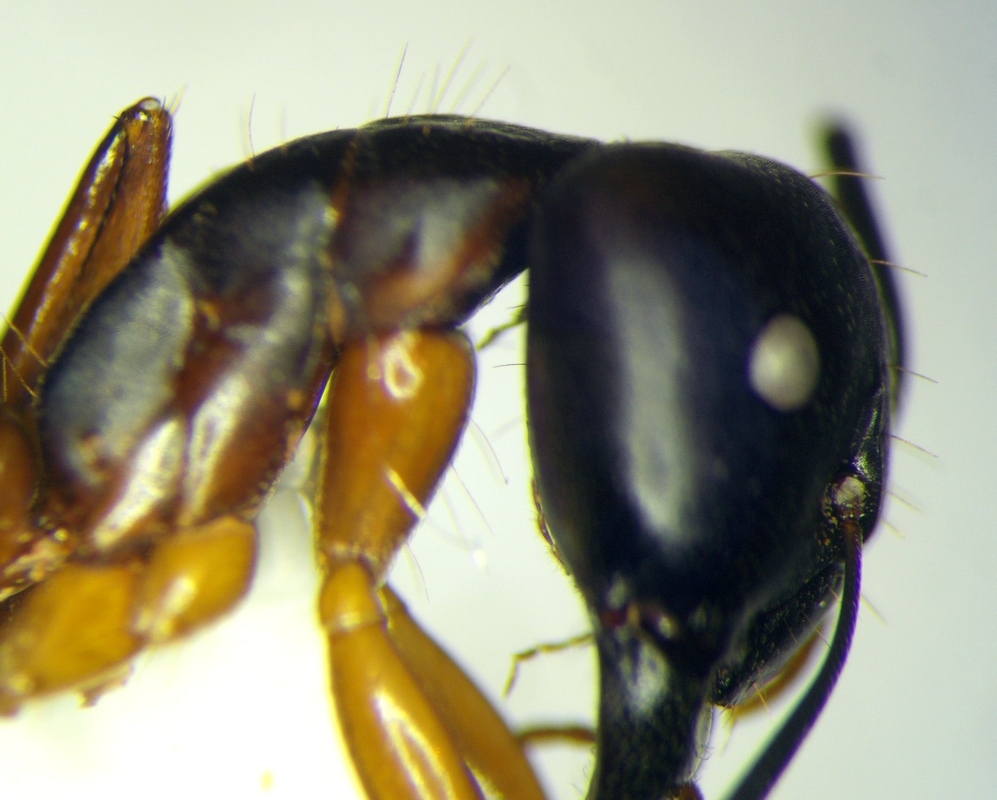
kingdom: Animalia
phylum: Arthropoda
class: Insecta
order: Hymenoptera
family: Formicidae
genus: Camponotus
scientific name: Camponotus baldaccii
